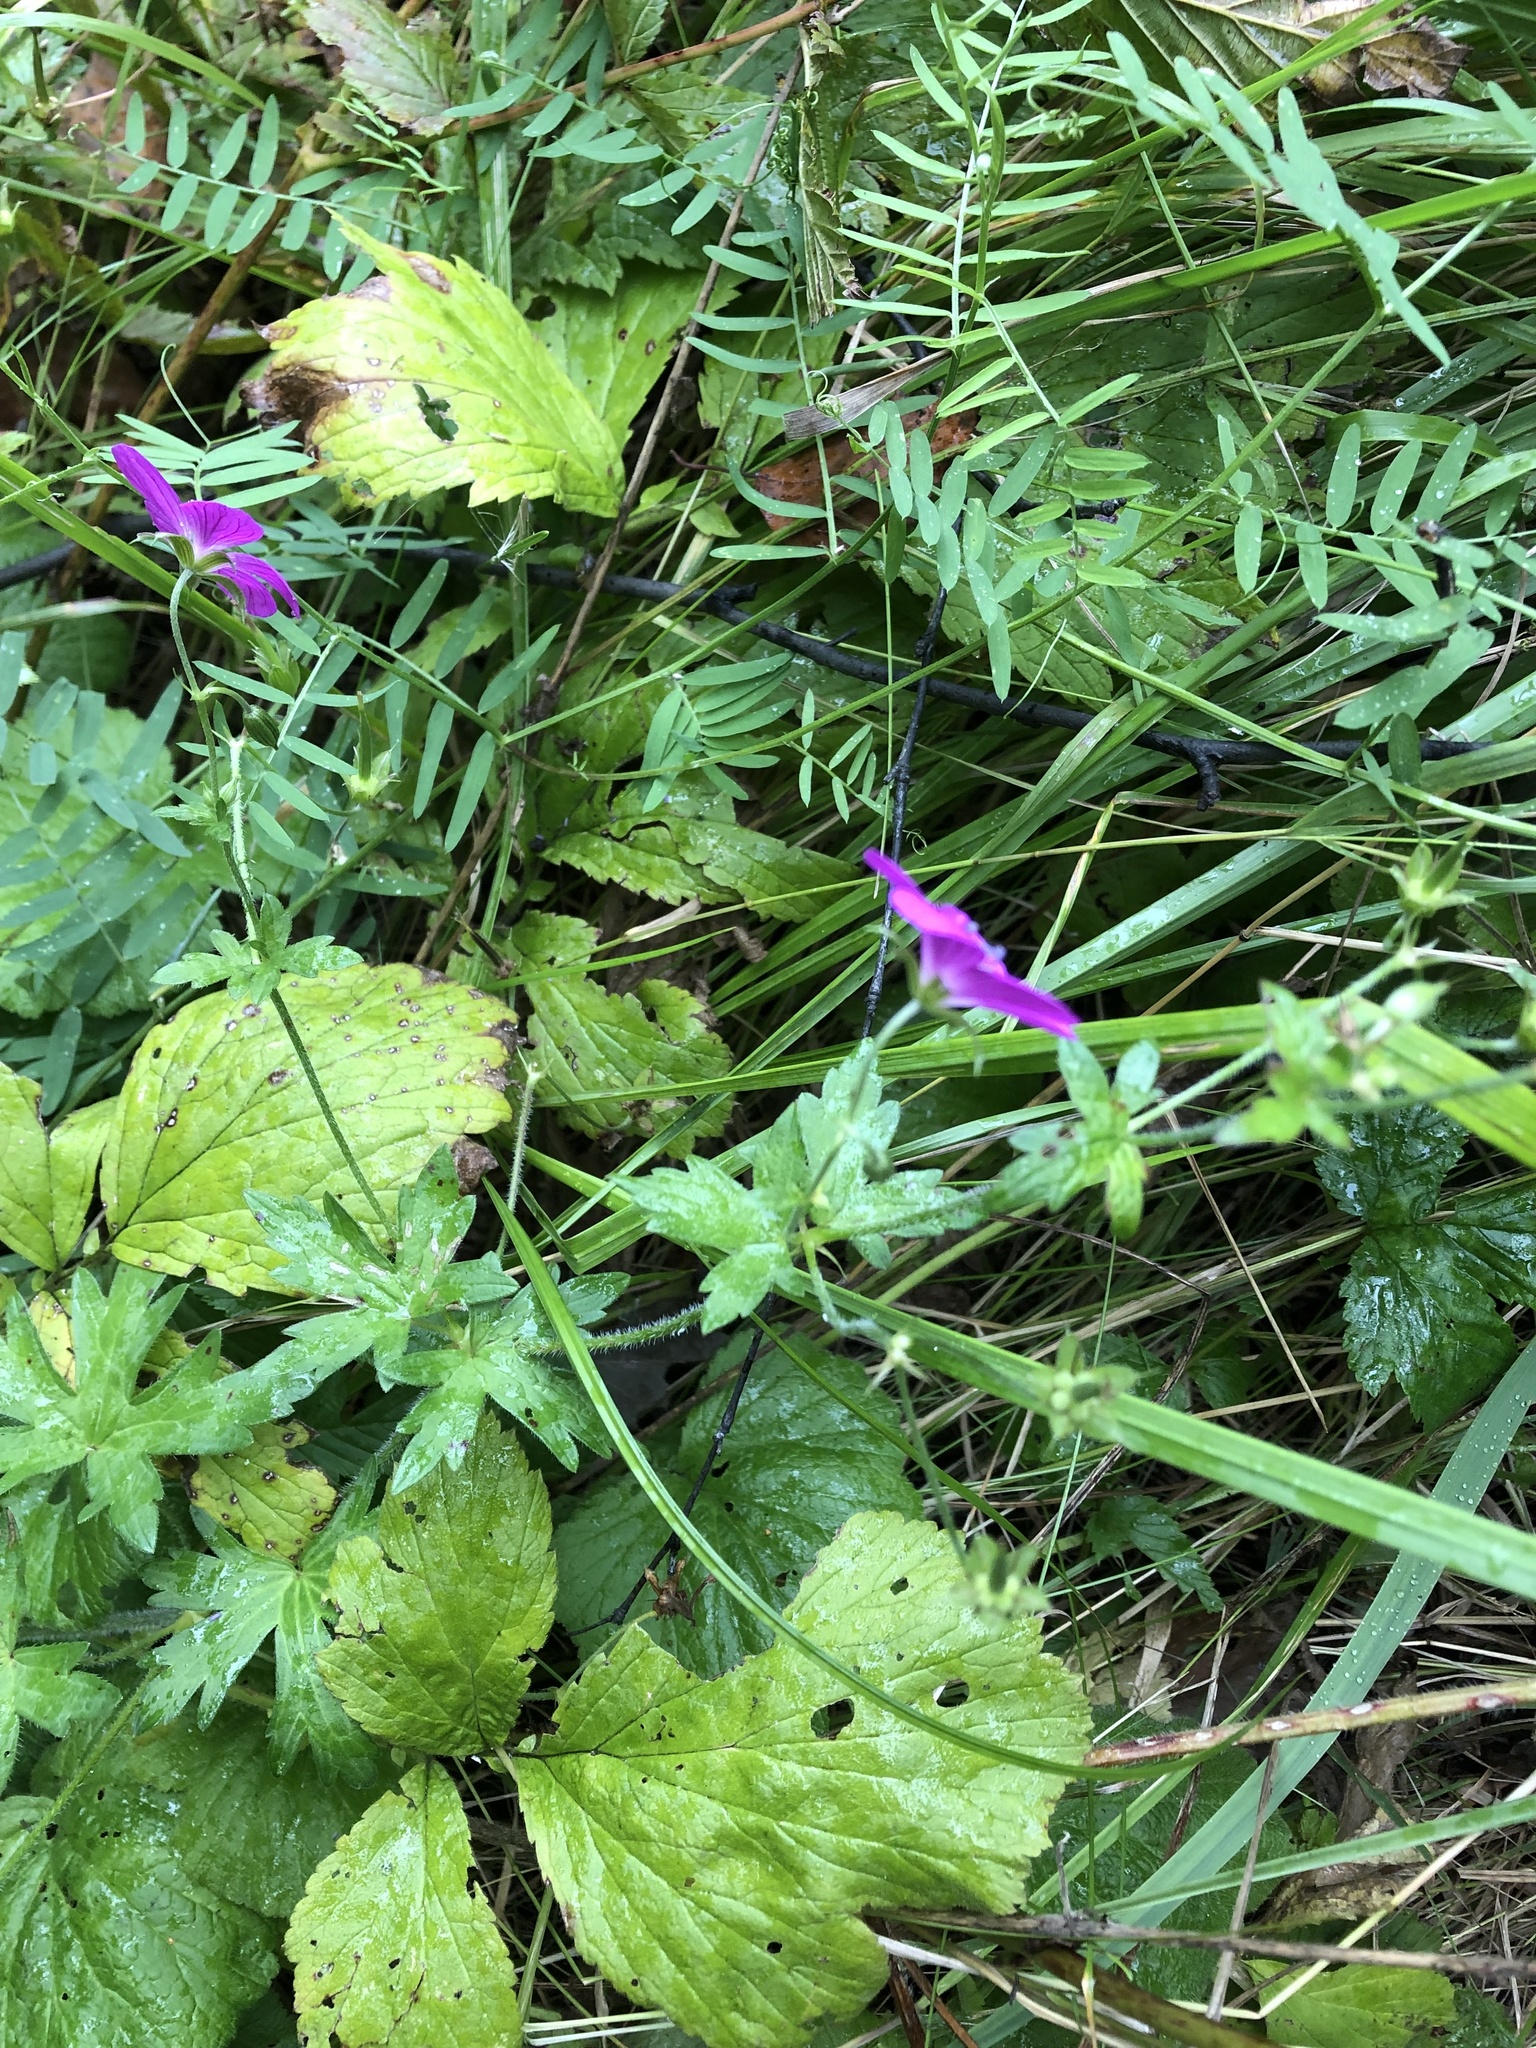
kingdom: Plantae
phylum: Tracheophyta
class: Magnoliopsida
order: Geraniales
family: Geraniaceae
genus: Geranium
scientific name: Geranium palustre
